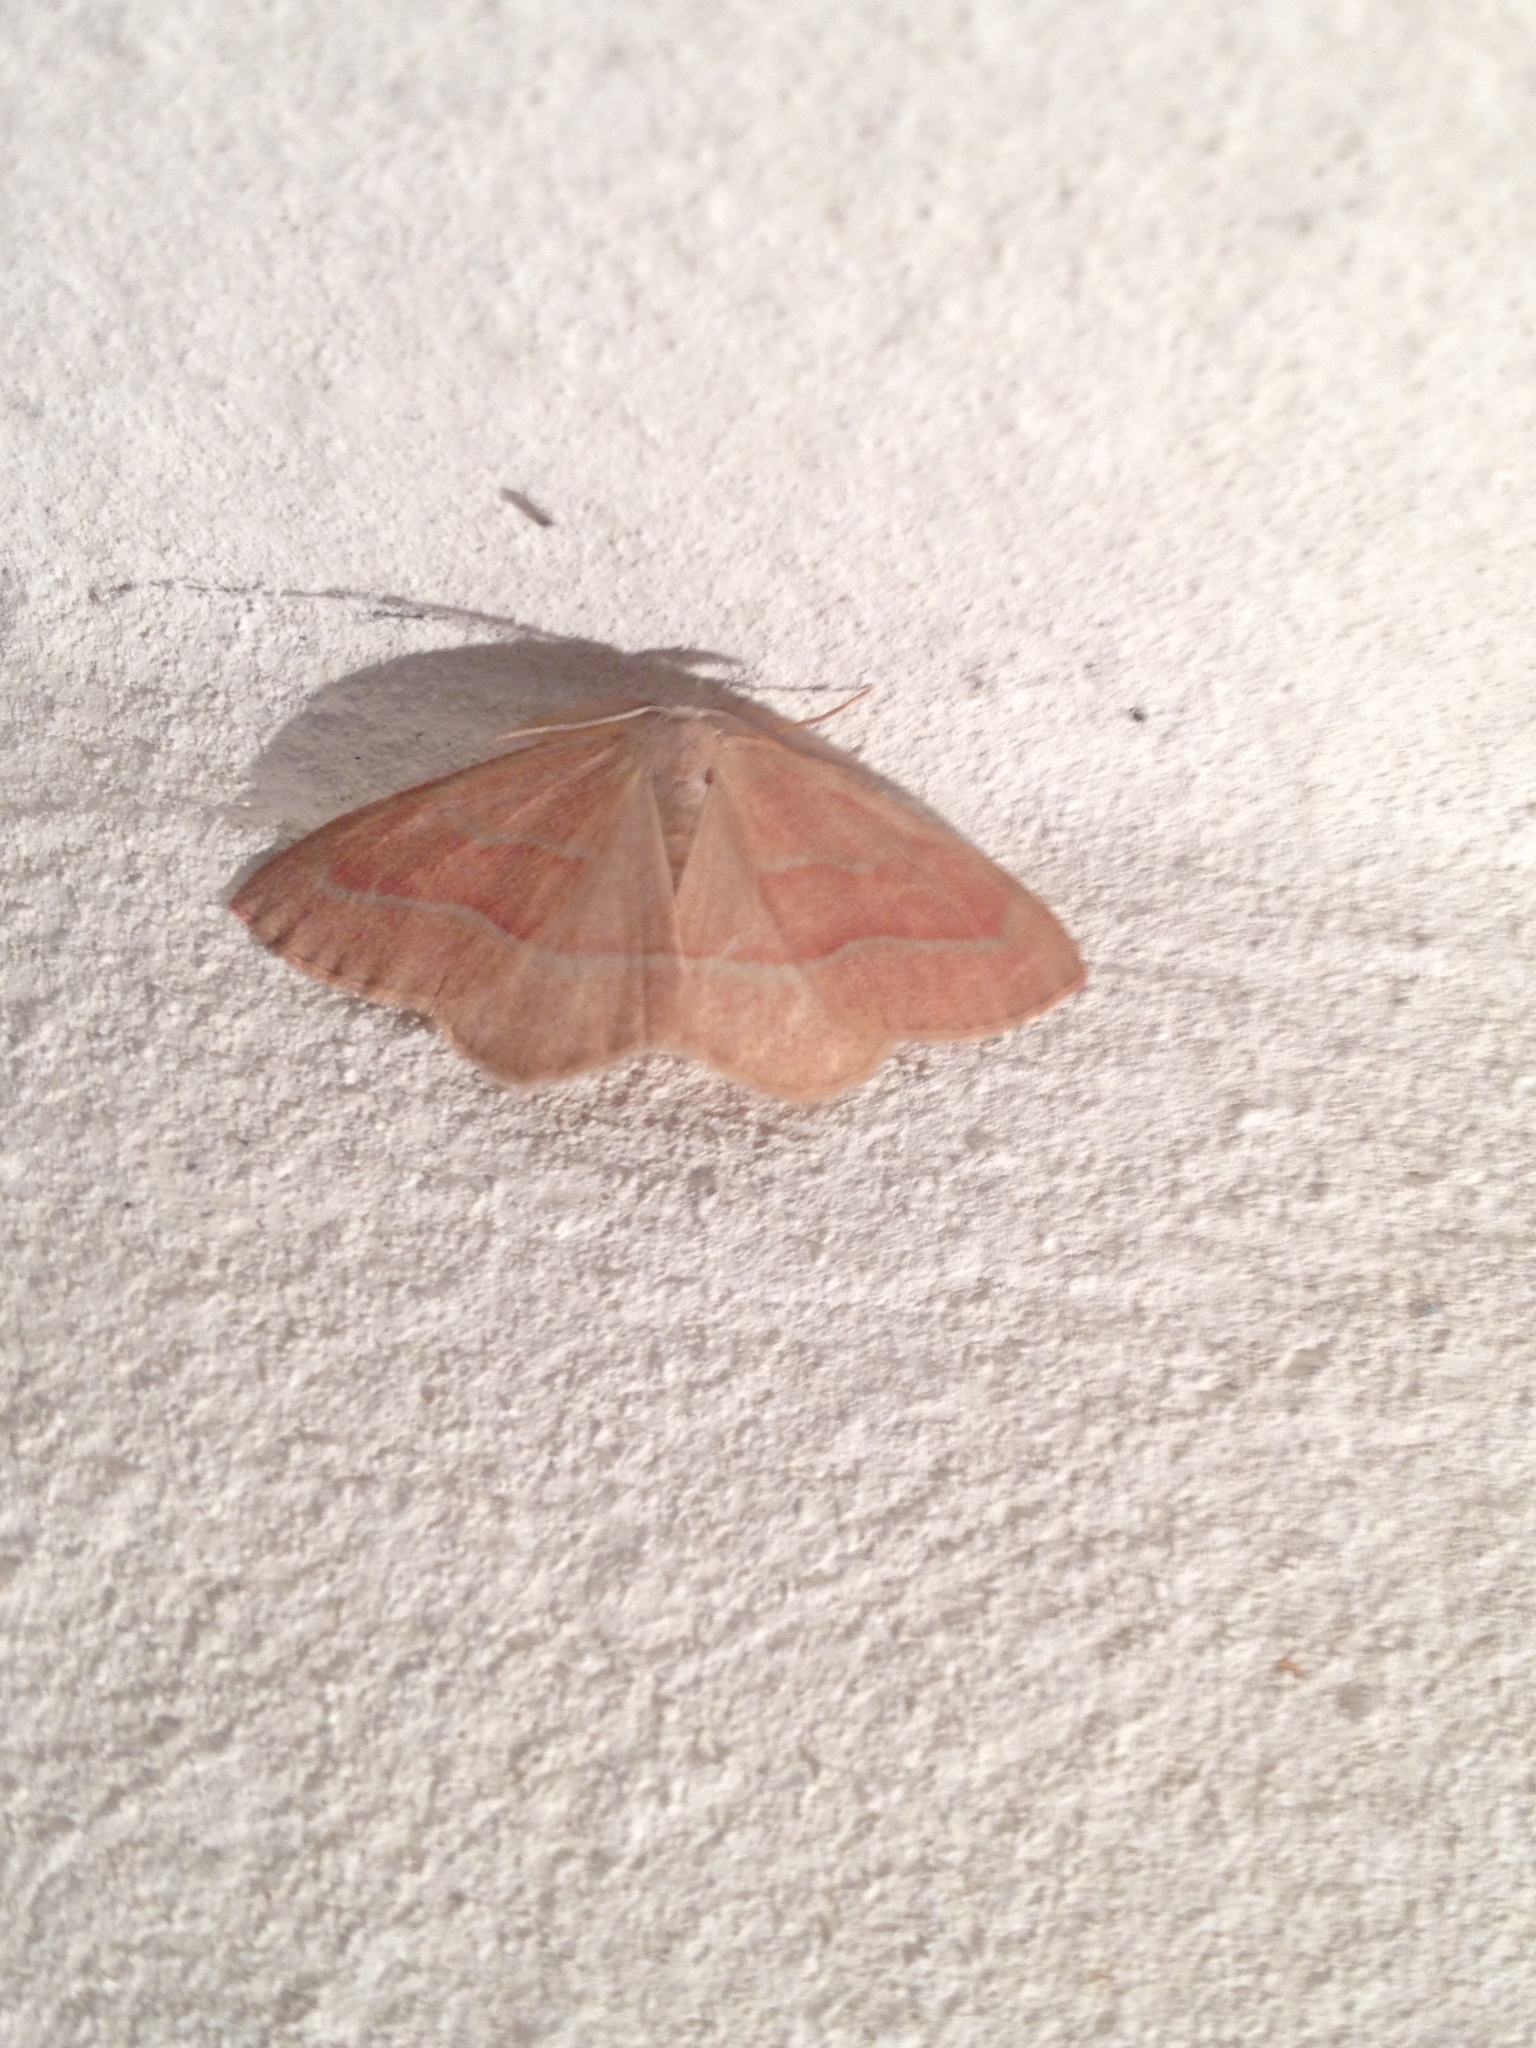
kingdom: Animalia
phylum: Arthropoda
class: Insecta
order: Lepidoptera
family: Geometridae
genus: Hylaea
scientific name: Hylaea fasciaria
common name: Barred red
